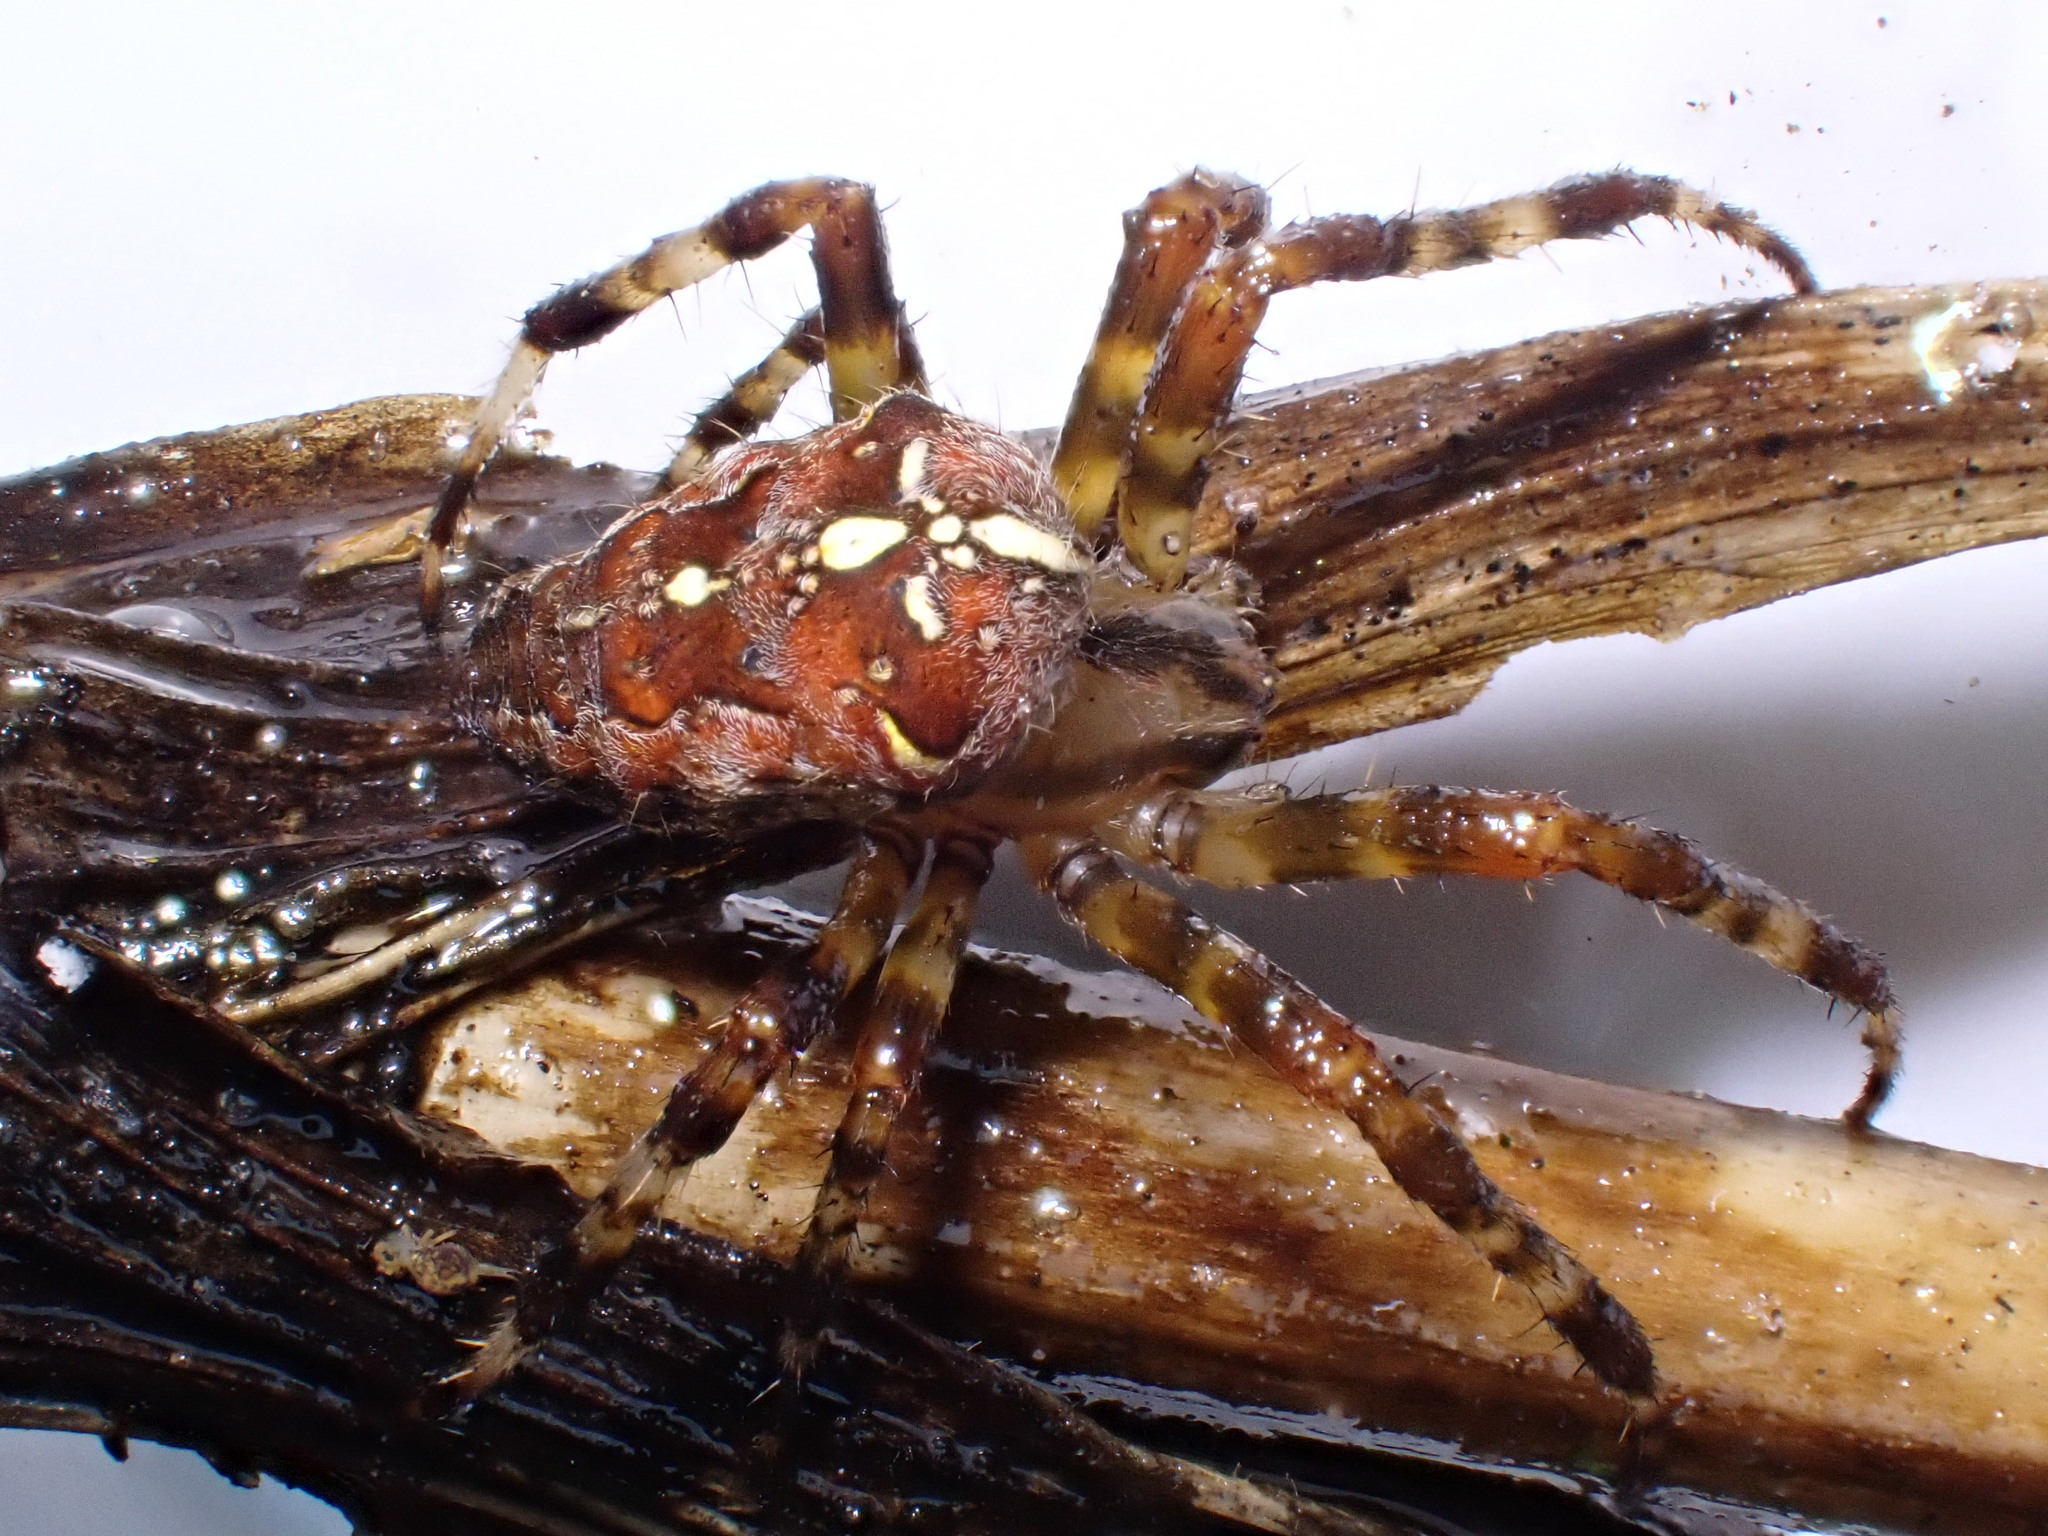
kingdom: Animalia
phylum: Arthropoda
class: Arachnida
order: Araneae
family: Araneidae
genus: Araneus
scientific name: Araneus diadematus
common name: Cross orbweaver
